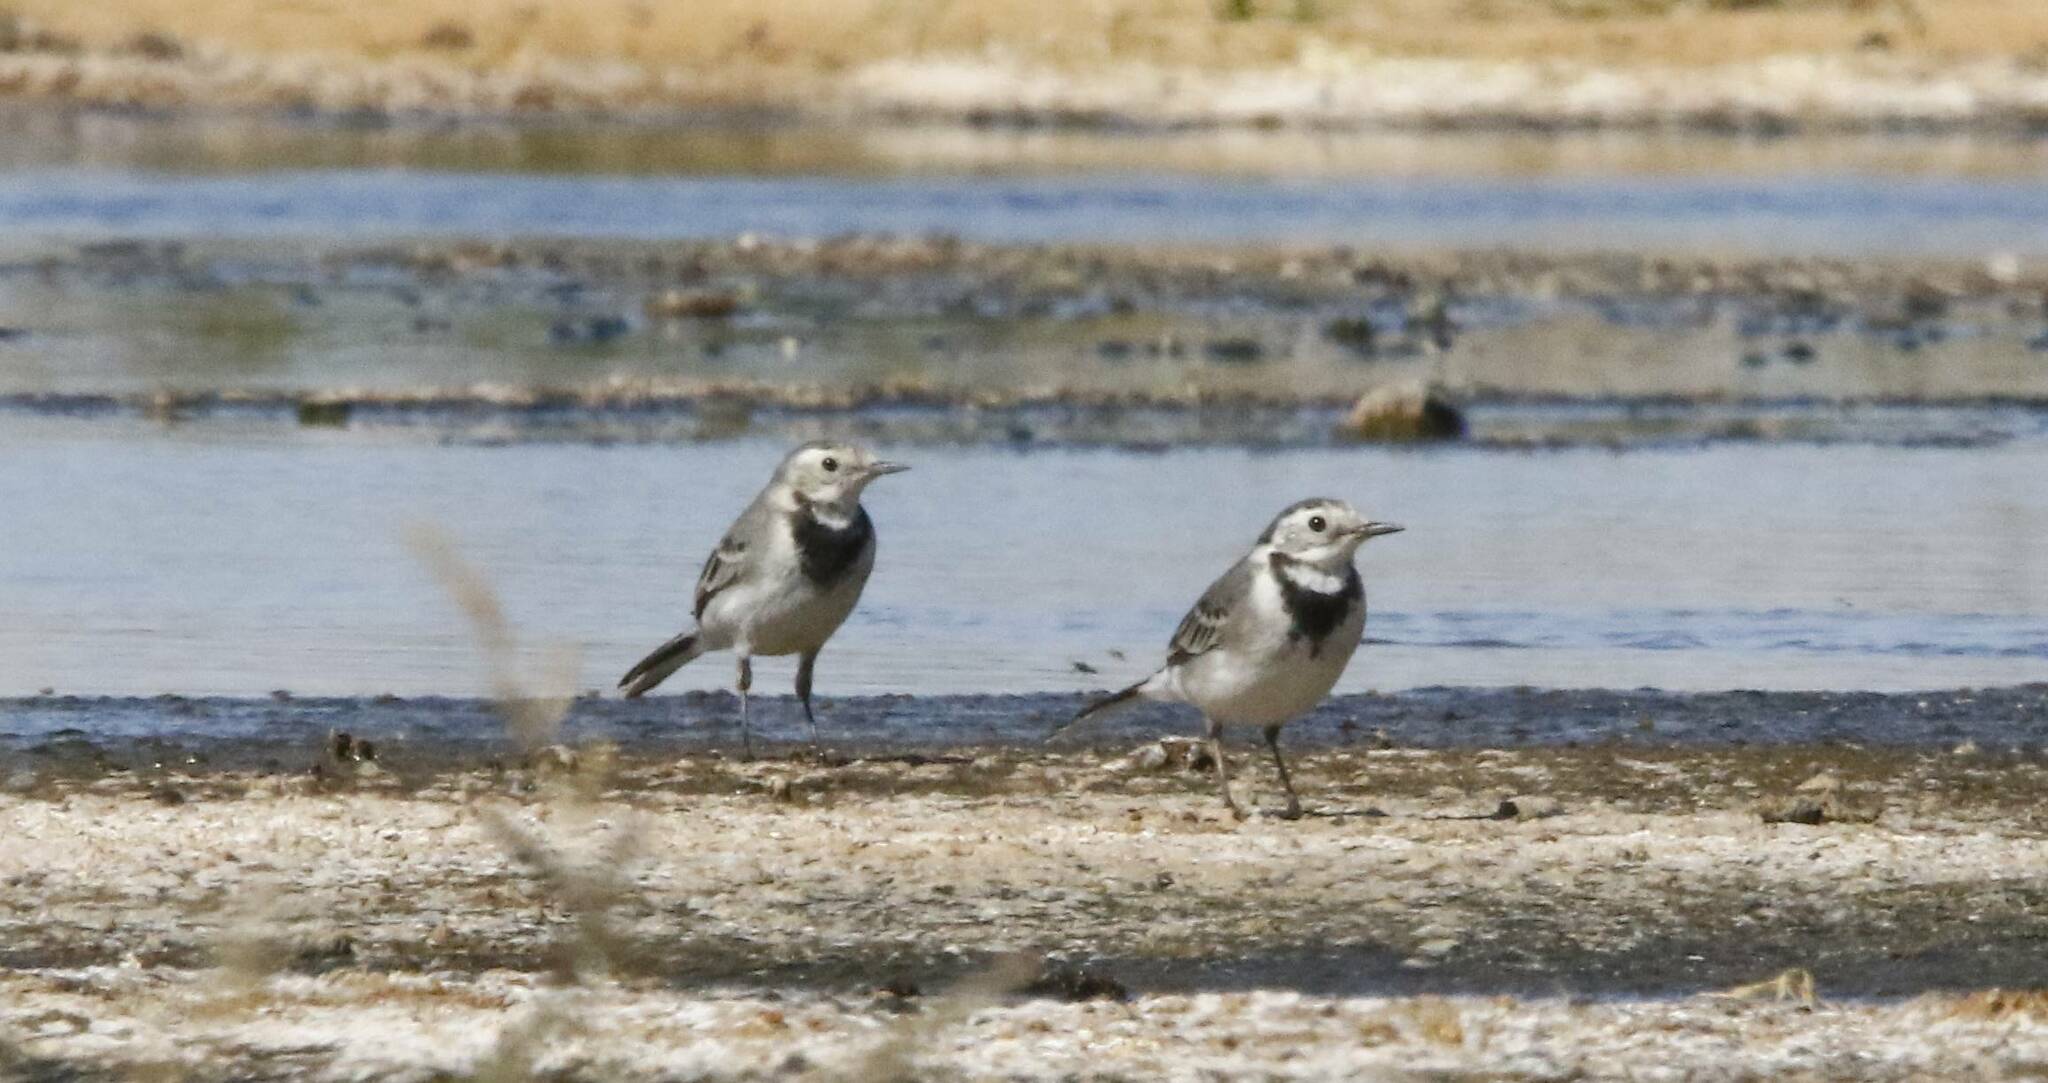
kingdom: Animalia
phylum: Chordata
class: Aves
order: Passeriformes
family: Motacillidae
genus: Motacilla
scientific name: Motacilla alba
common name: White wagtail
